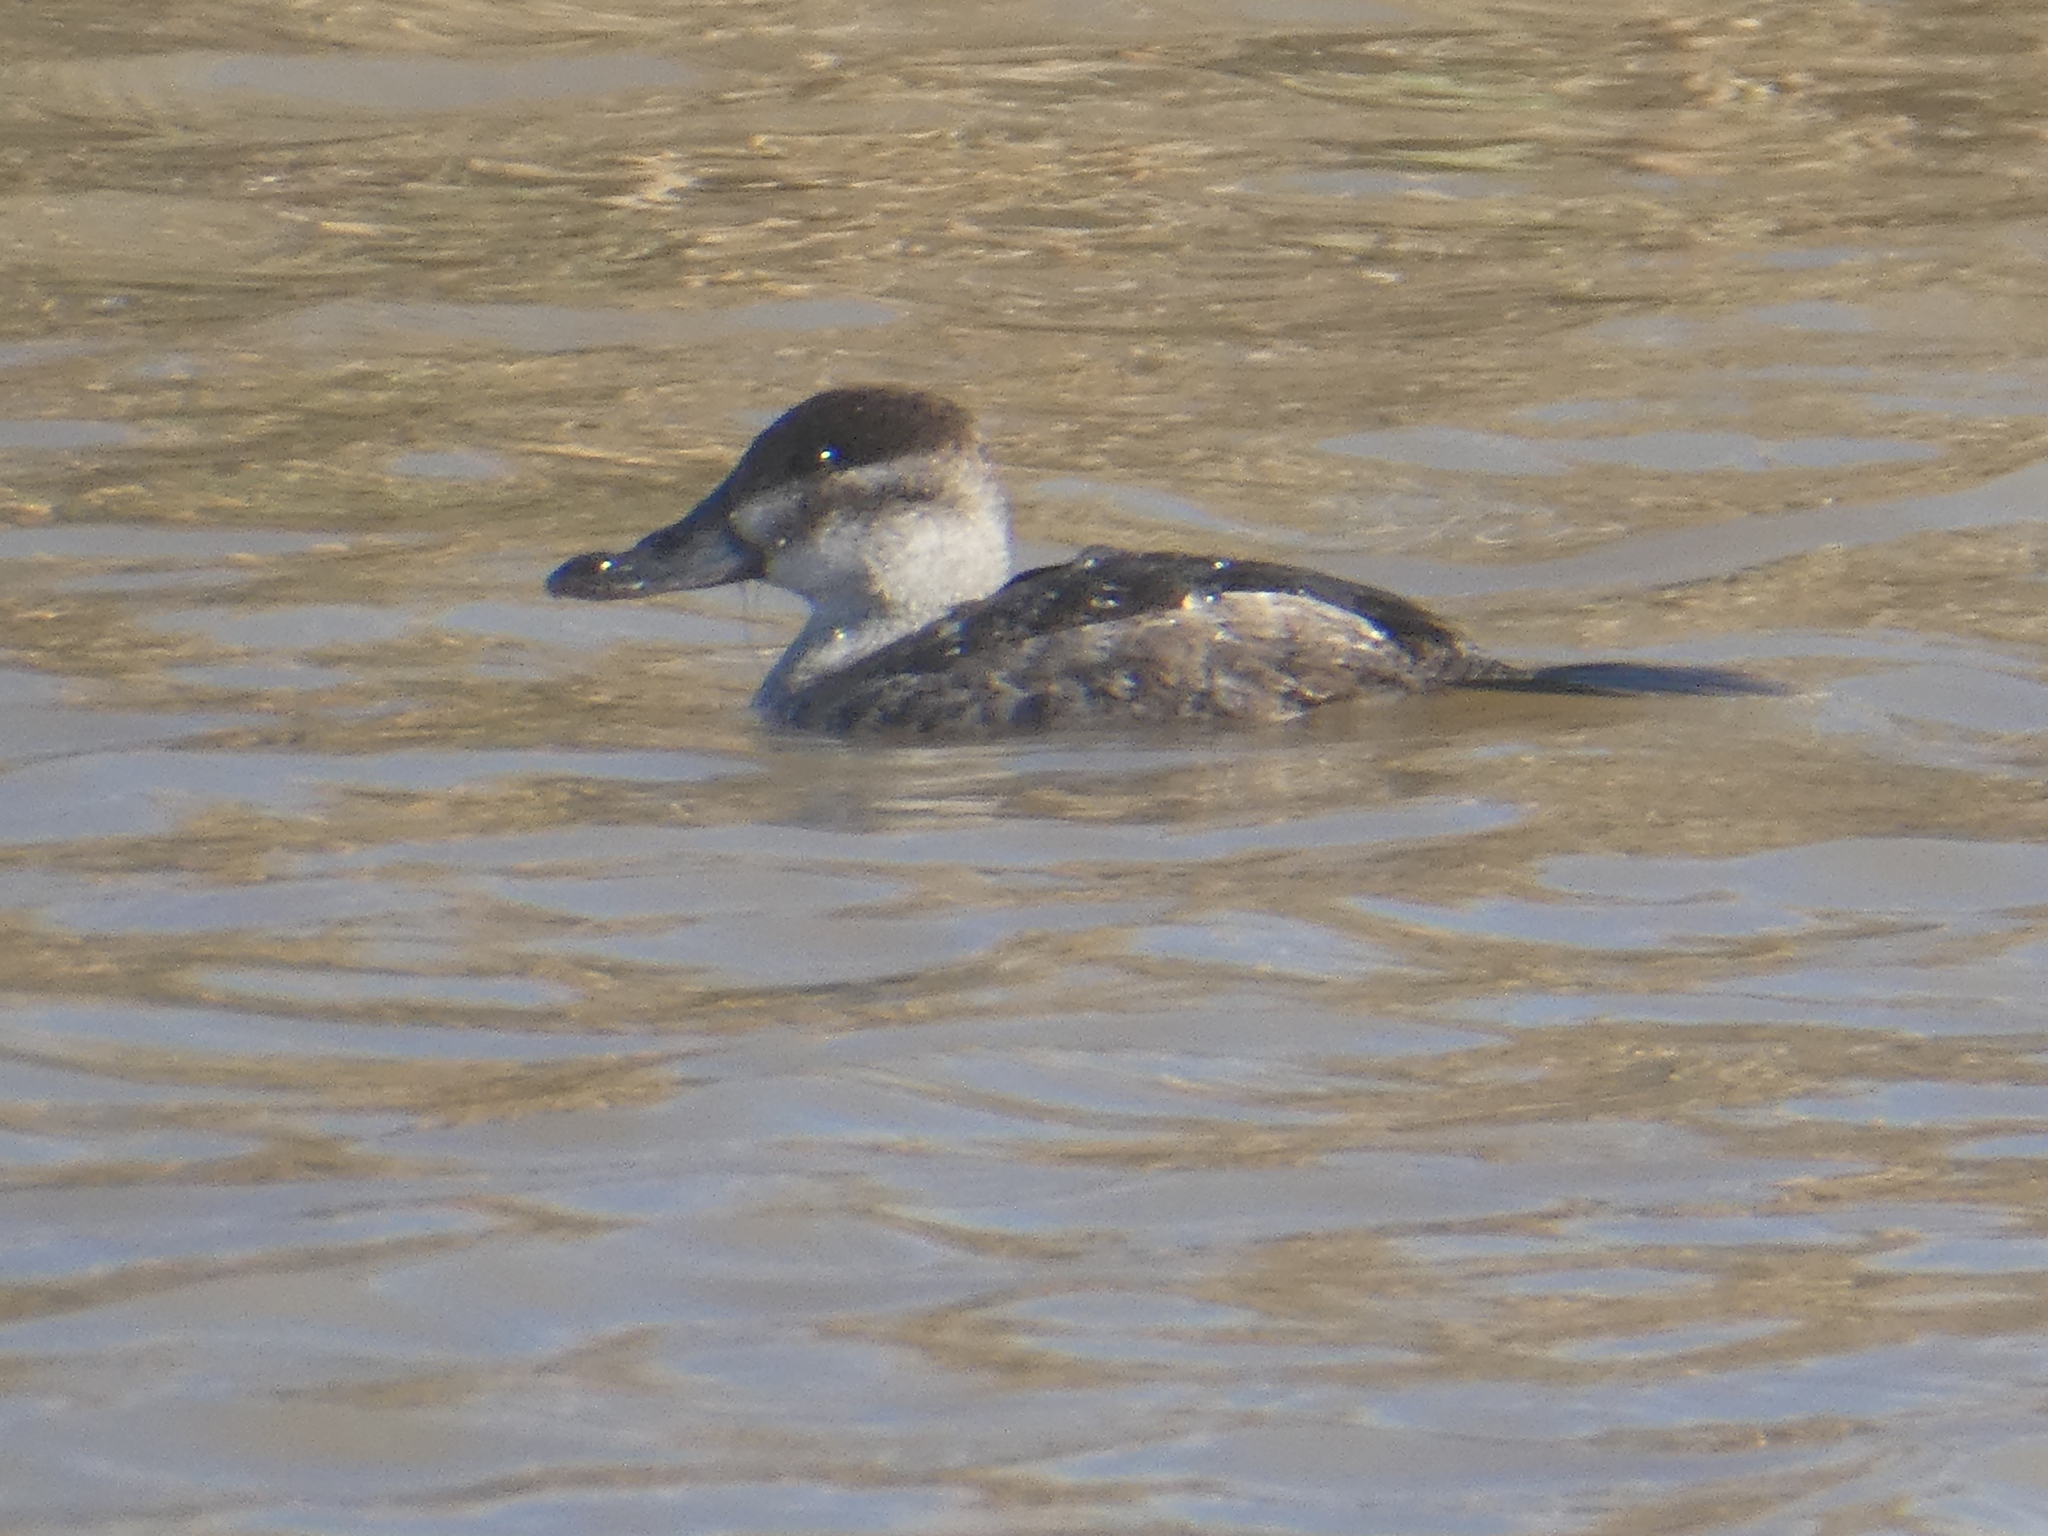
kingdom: Animalia
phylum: Chordata
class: Aves
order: Anseriformes
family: Anatidae
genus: Oxyura
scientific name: Oxyura jamaicensis
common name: Ruddy duck
